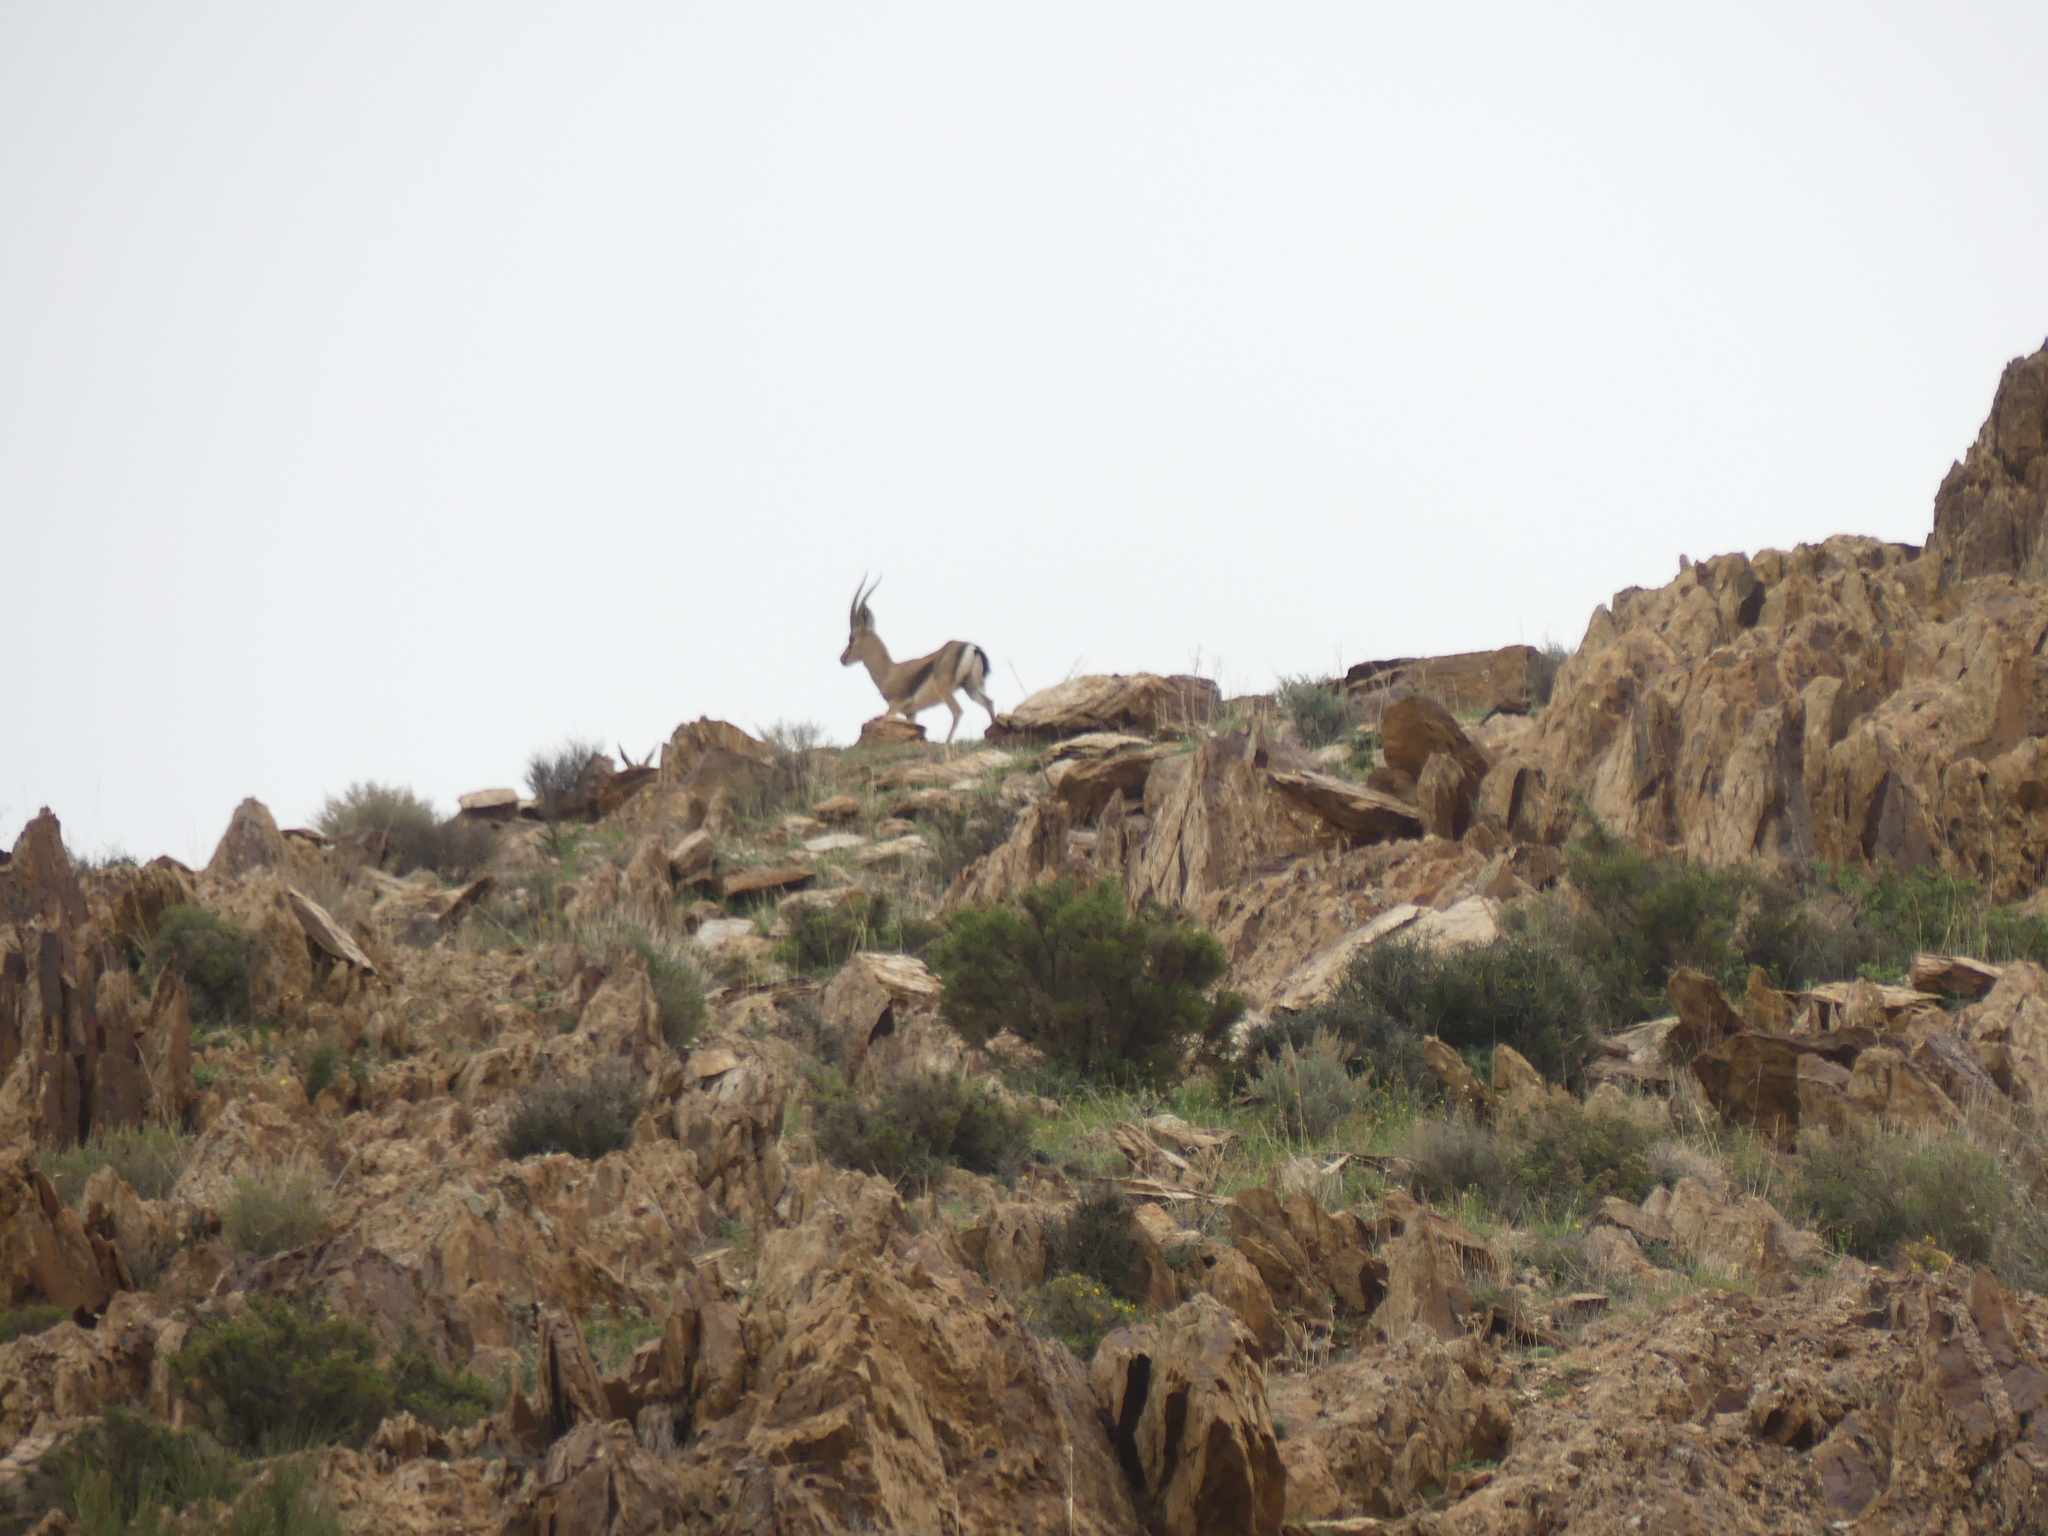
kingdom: Animalia
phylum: Chordata
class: Mammalia
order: Artiodactyla
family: Bovidae
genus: Gazella
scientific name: Gazella cuvieri
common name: Cuvier's gazelle
